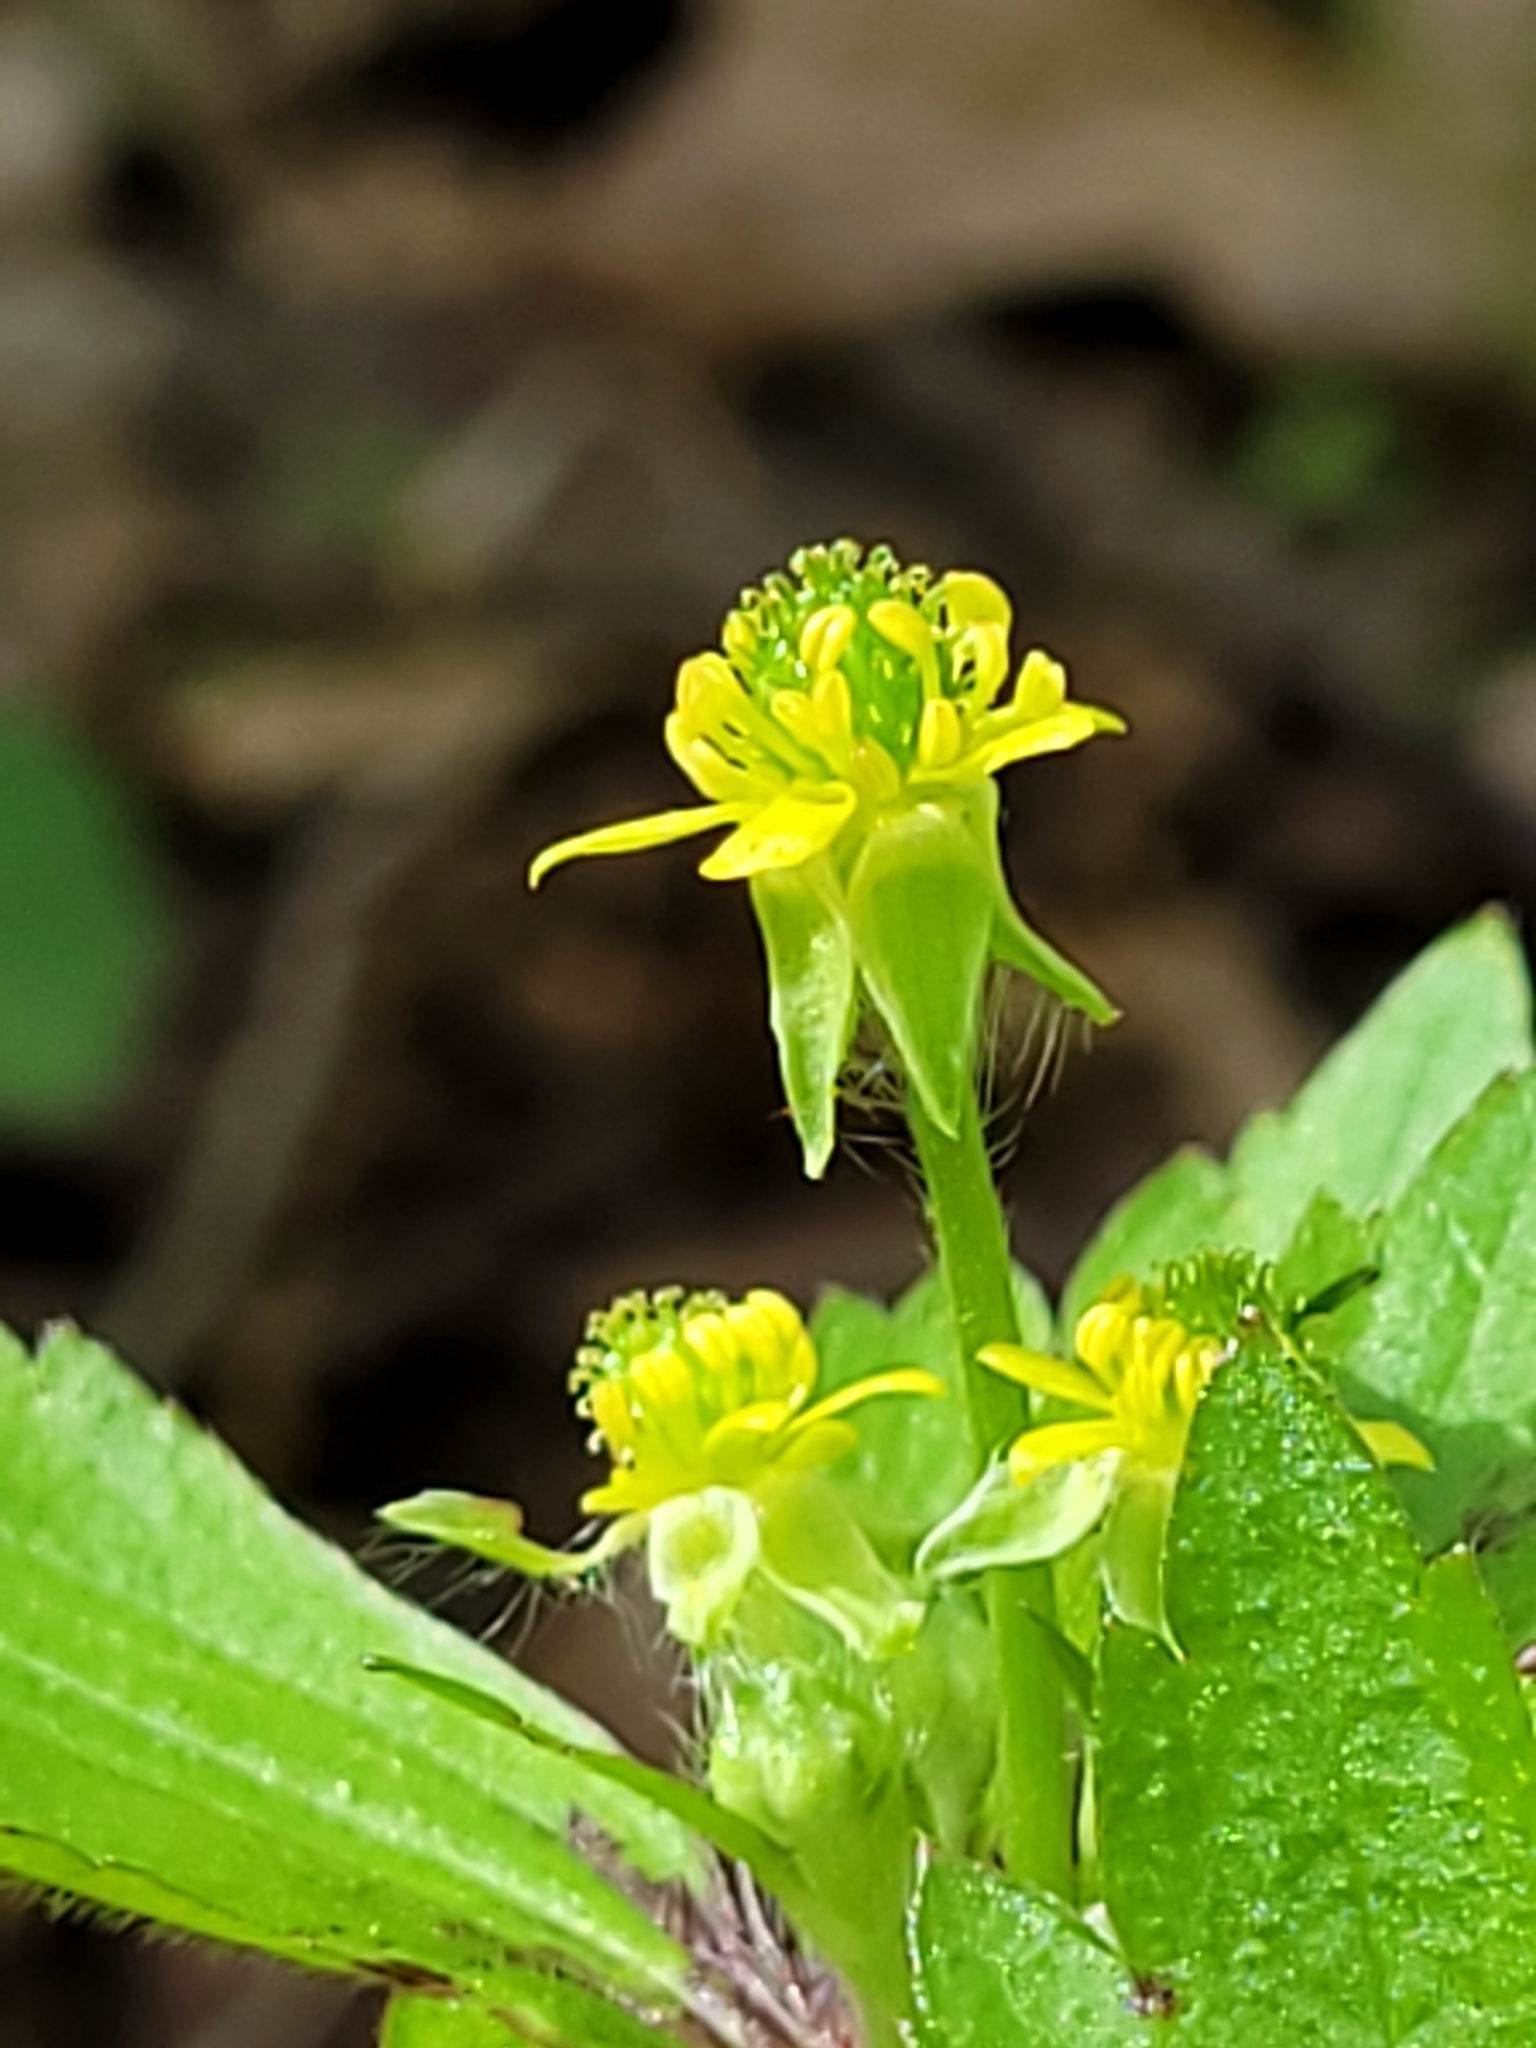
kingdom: Plantae
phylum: Tracheophyta
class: Magnoliopsida
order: Ranunculales
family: Ranunculaceae
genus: Ranunculus
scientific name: Ranunculus recurvatus
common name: Blisterwort
